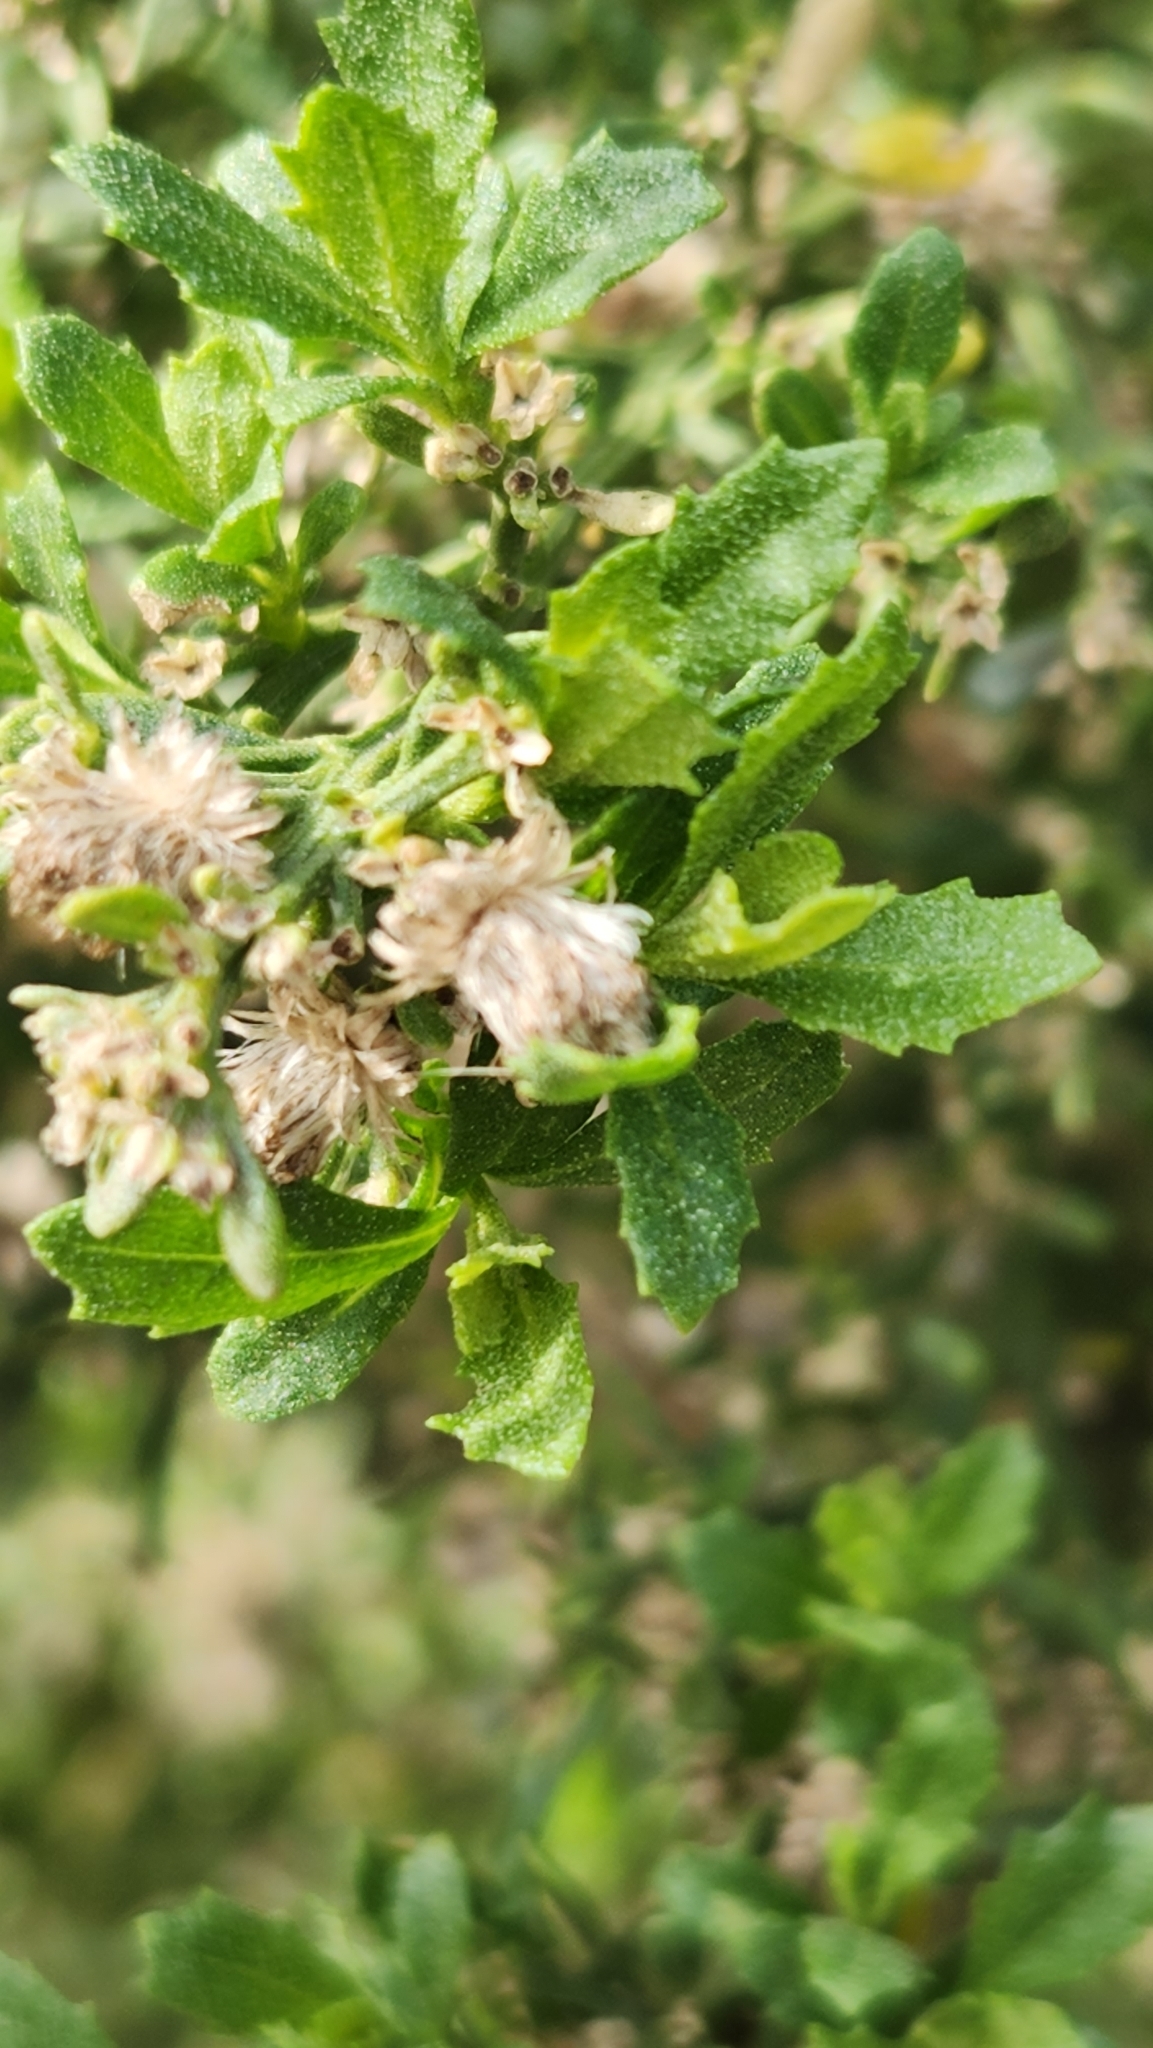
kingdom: Plantae
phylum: Tracheophyta
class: Magnoliopsida
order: Asterales
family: Asteraceae
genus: Baccharis
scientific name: Baccharis pilularis
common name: Coyotebrush
